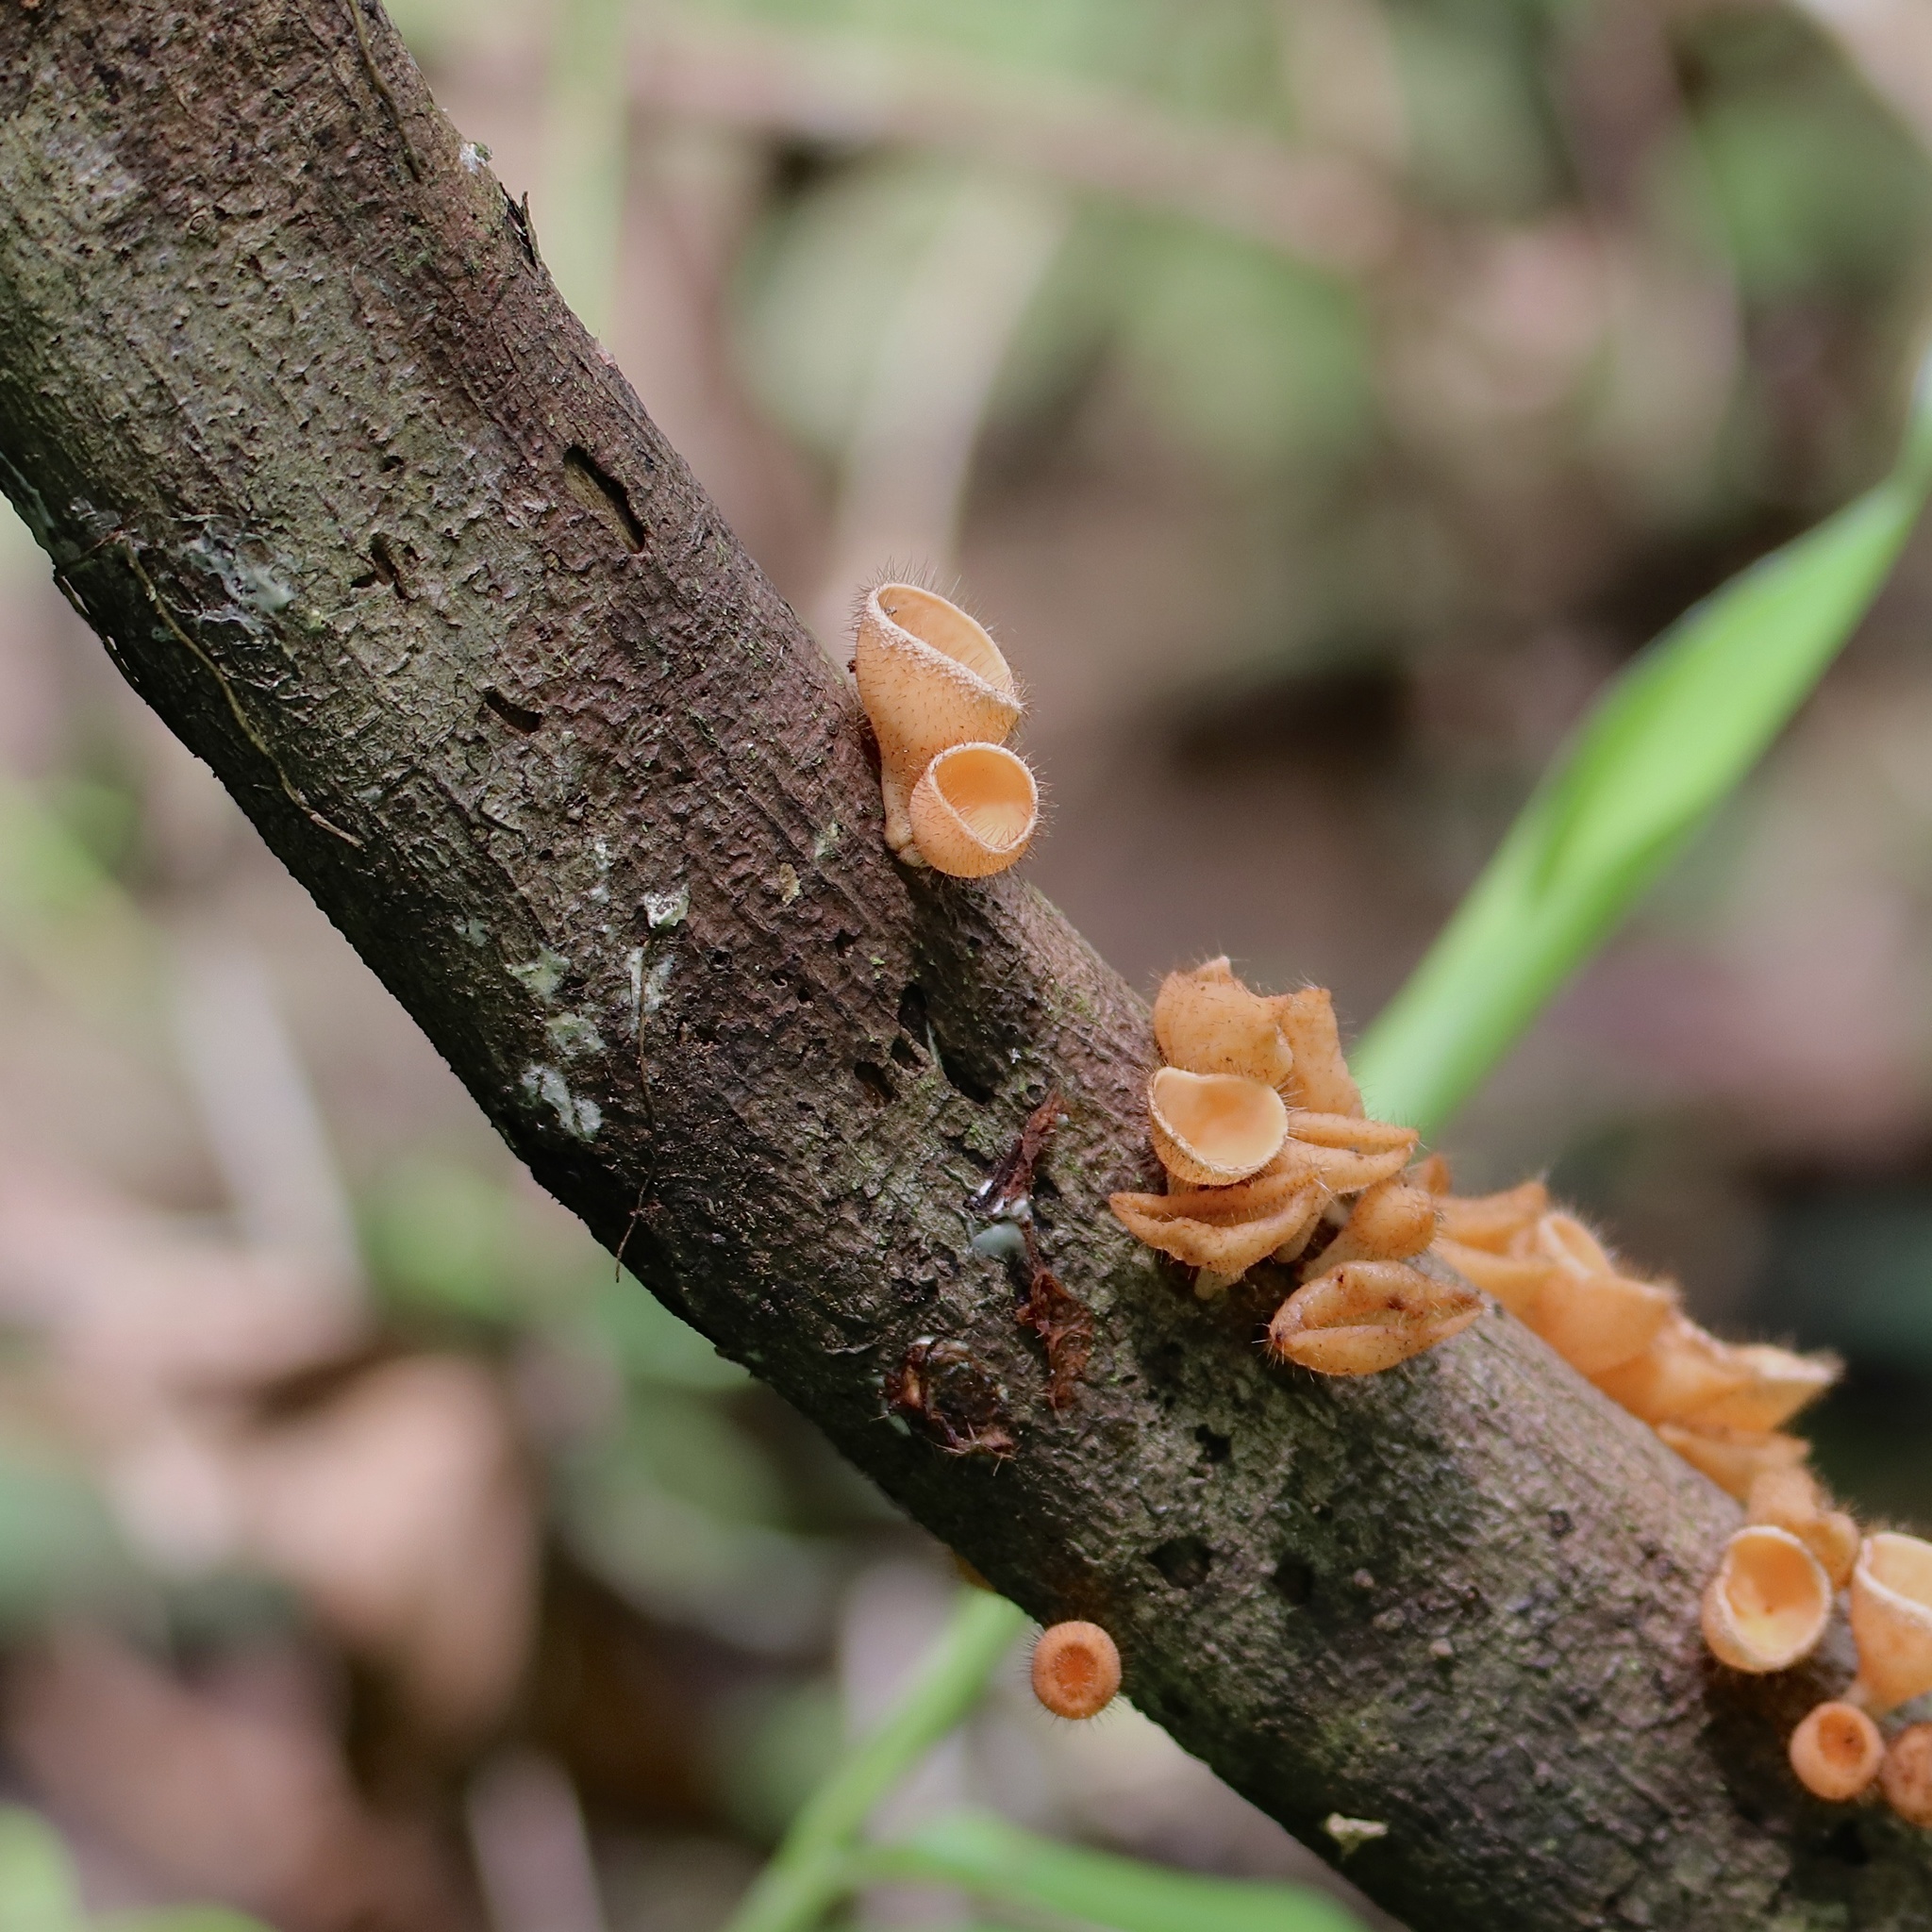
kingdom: Fungi
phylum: Ascomycota
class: Pezizomycetes
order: Pezizales
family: Sarcoscyphaceae
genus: Cookeina
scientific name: Cookeina tricholoma
